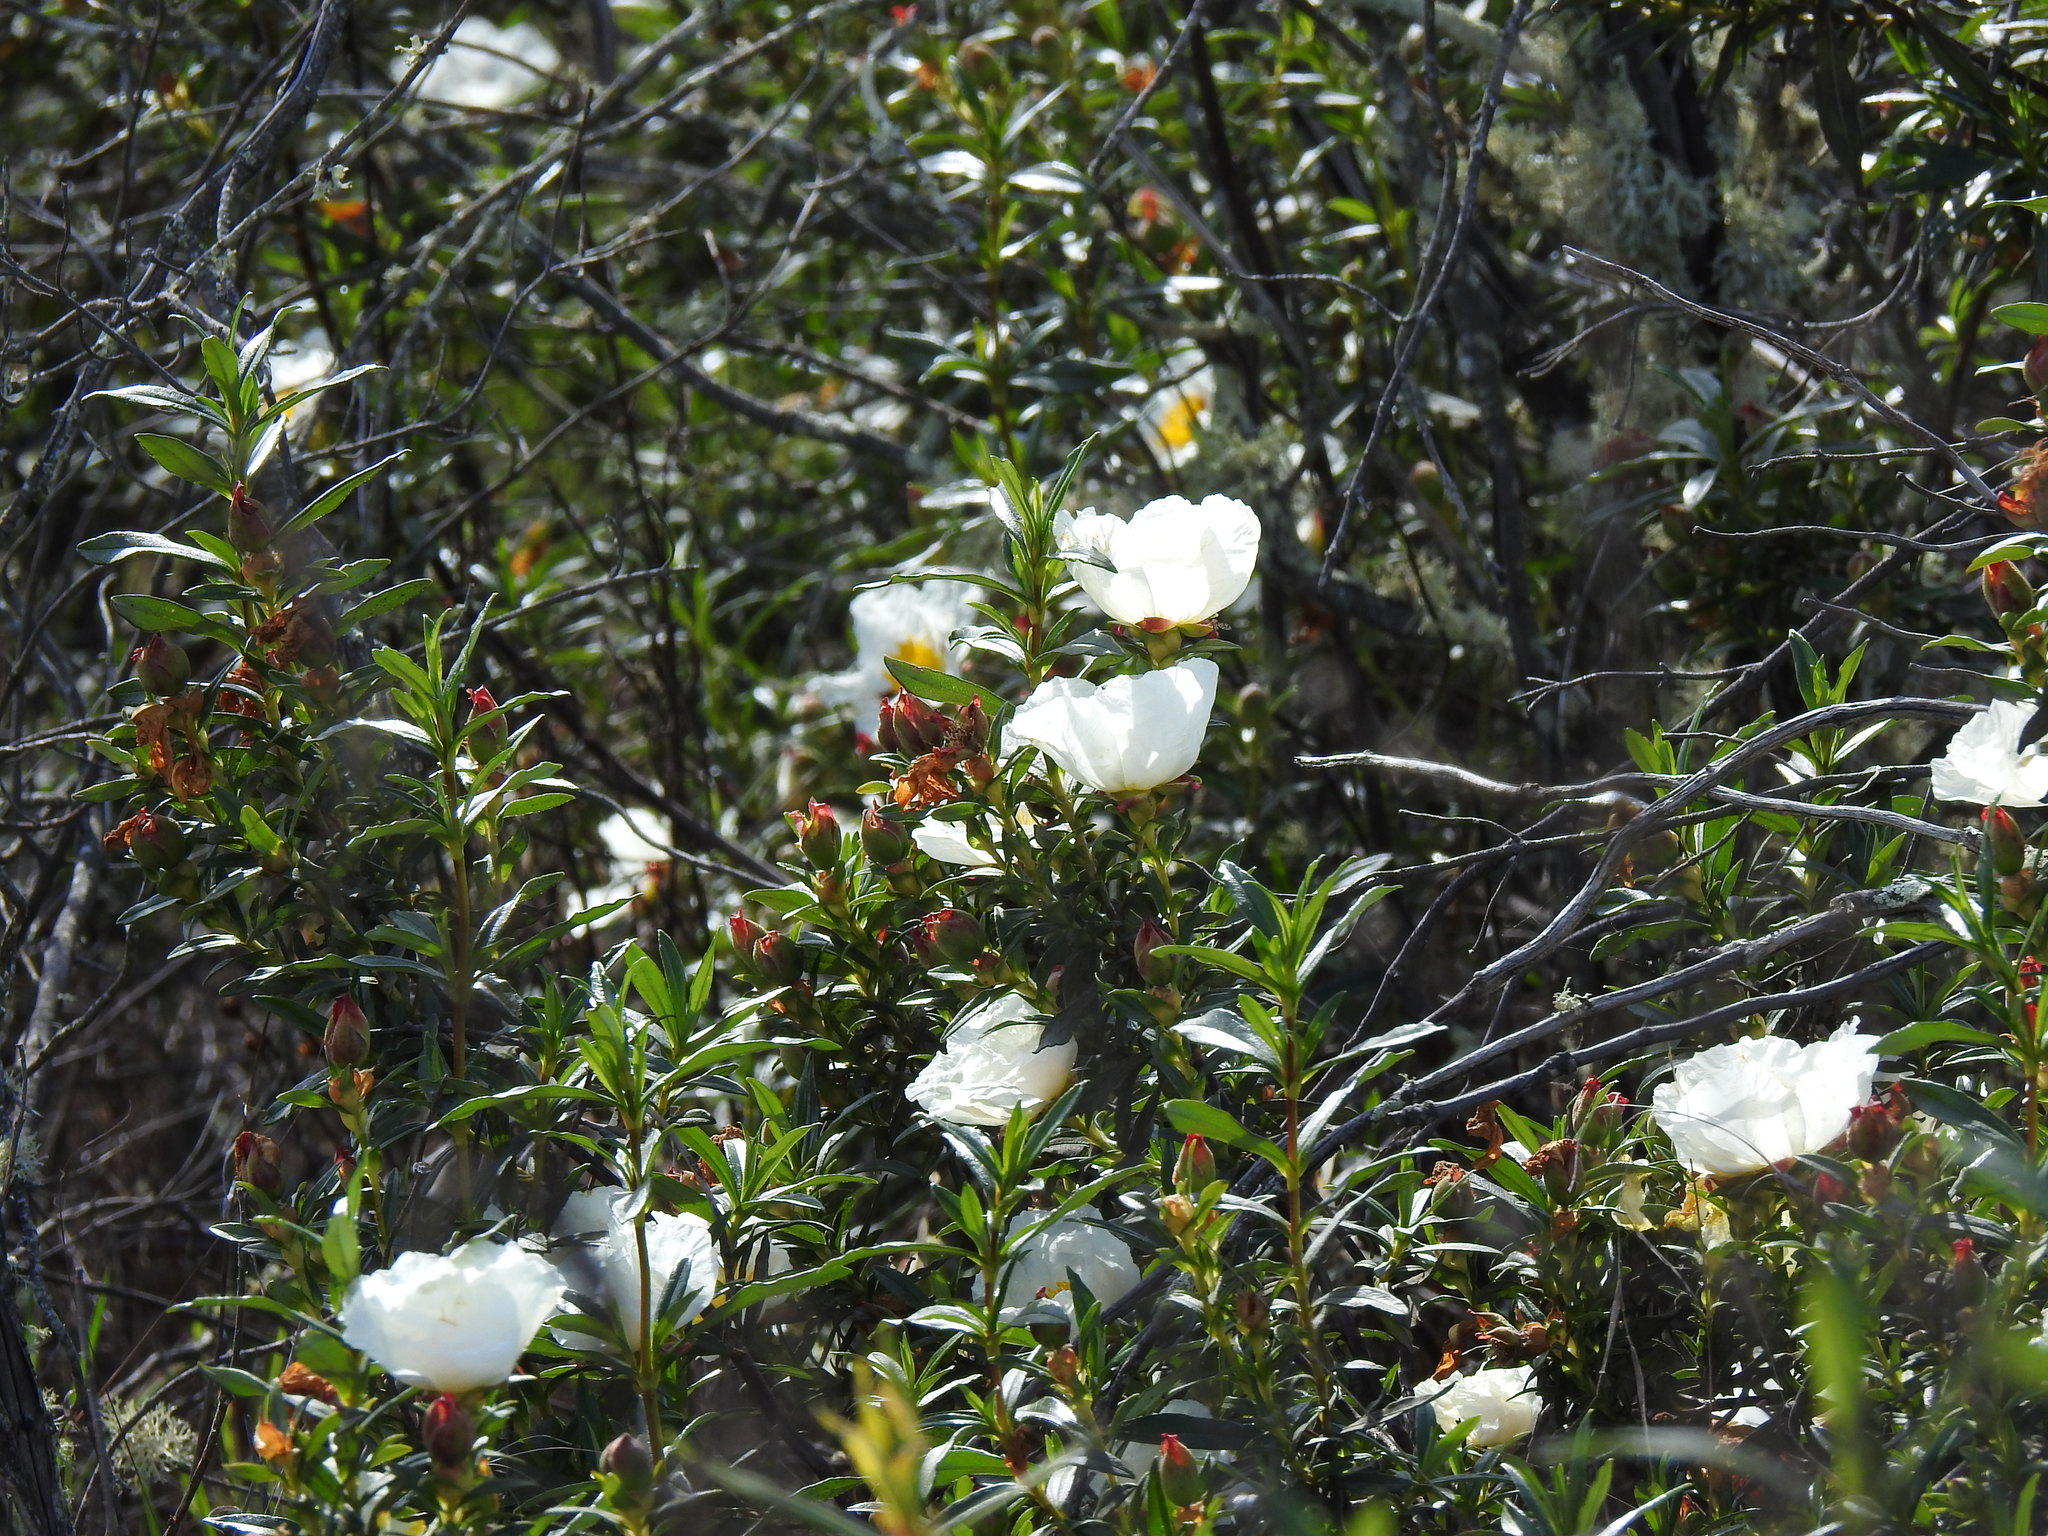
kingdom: Plantae
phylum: Tracheophyta
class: Magnoliopsida
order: Malvales
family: Cistaceae
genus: Cistus
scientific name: Cistus ladanifer
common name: Common gum cistus
